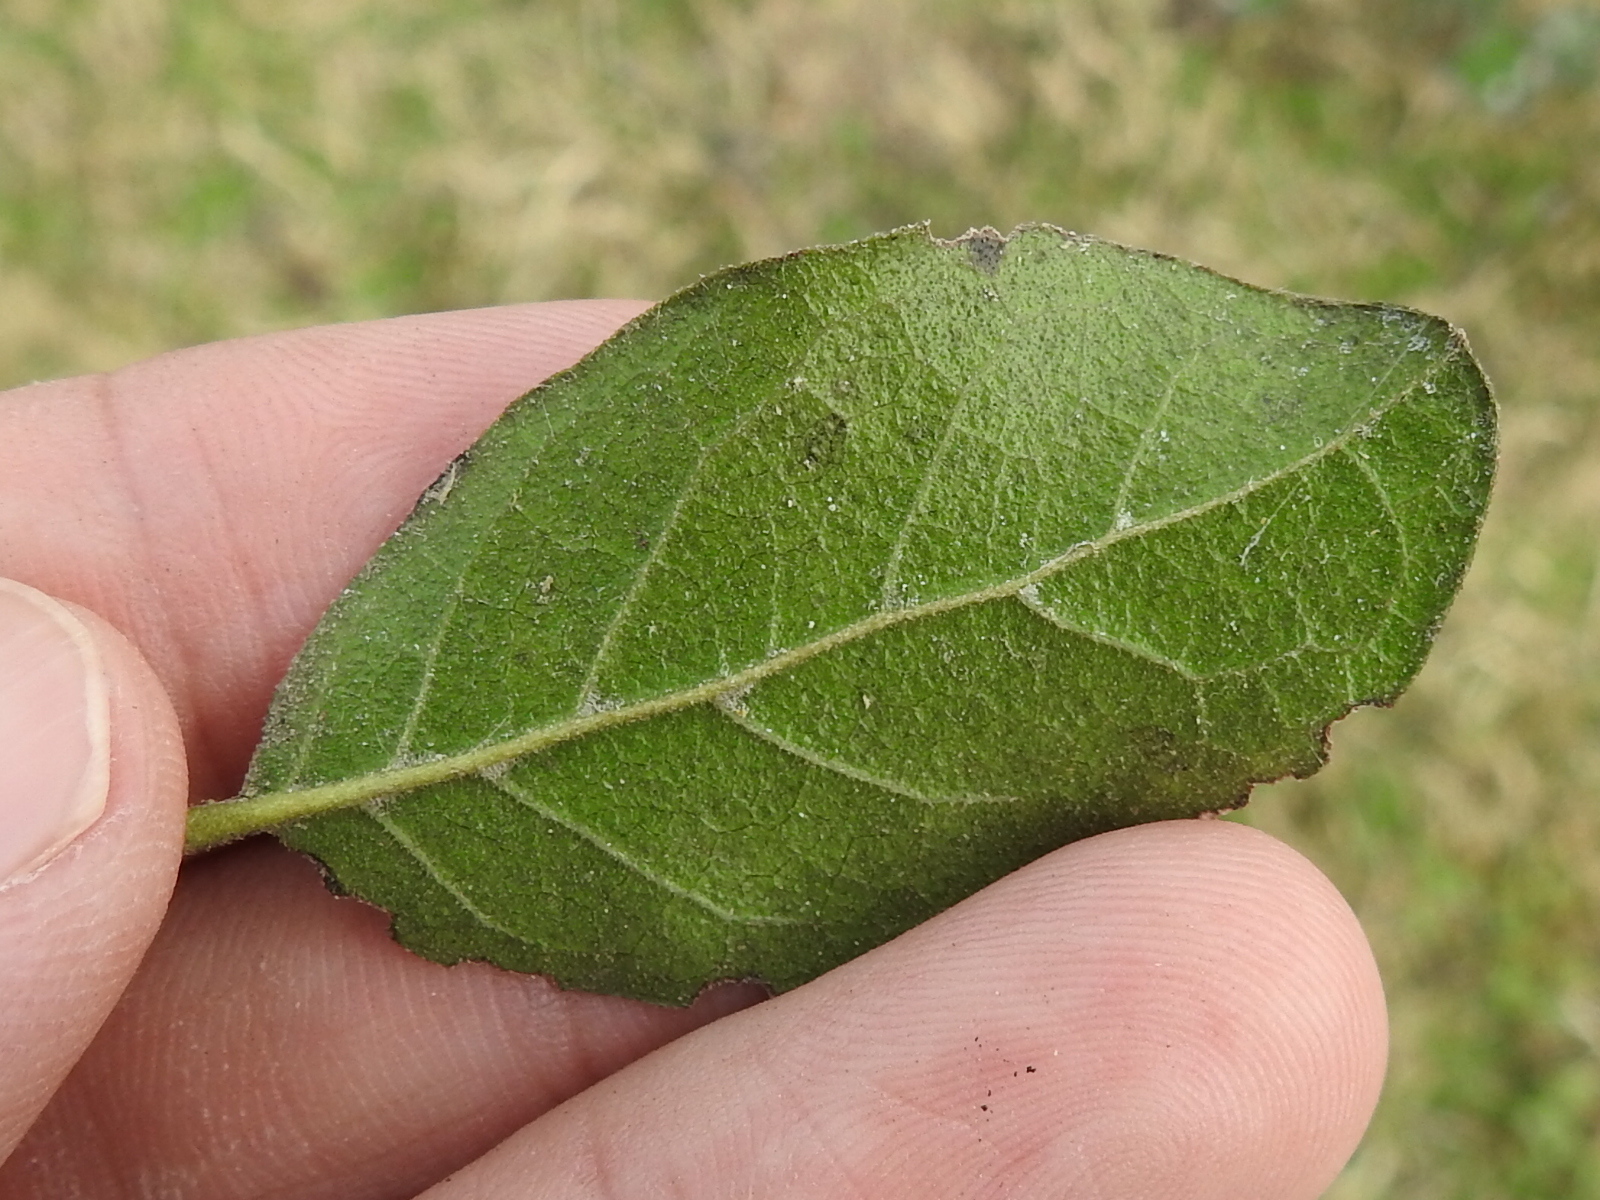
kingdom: Plantae
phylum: Tracheophyta
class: Magnoliopsida
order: Boraginales
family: Ehretiaceae
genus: Ehretia
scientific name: Ehretia anacua
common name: Sugarberry
